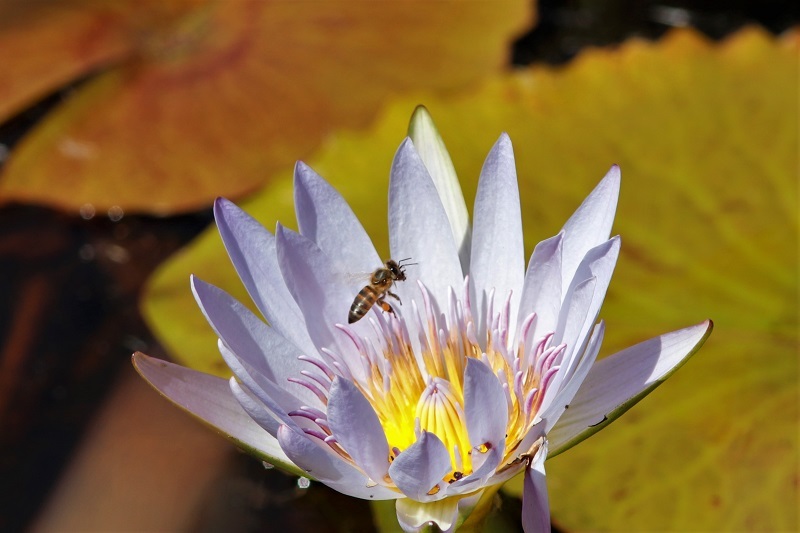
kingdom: Animalia
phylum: Arthropoda
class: Insecta
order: Hymenoptera
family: Apidae
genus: Apis
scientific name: Apis mellifera
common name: Honey bee
